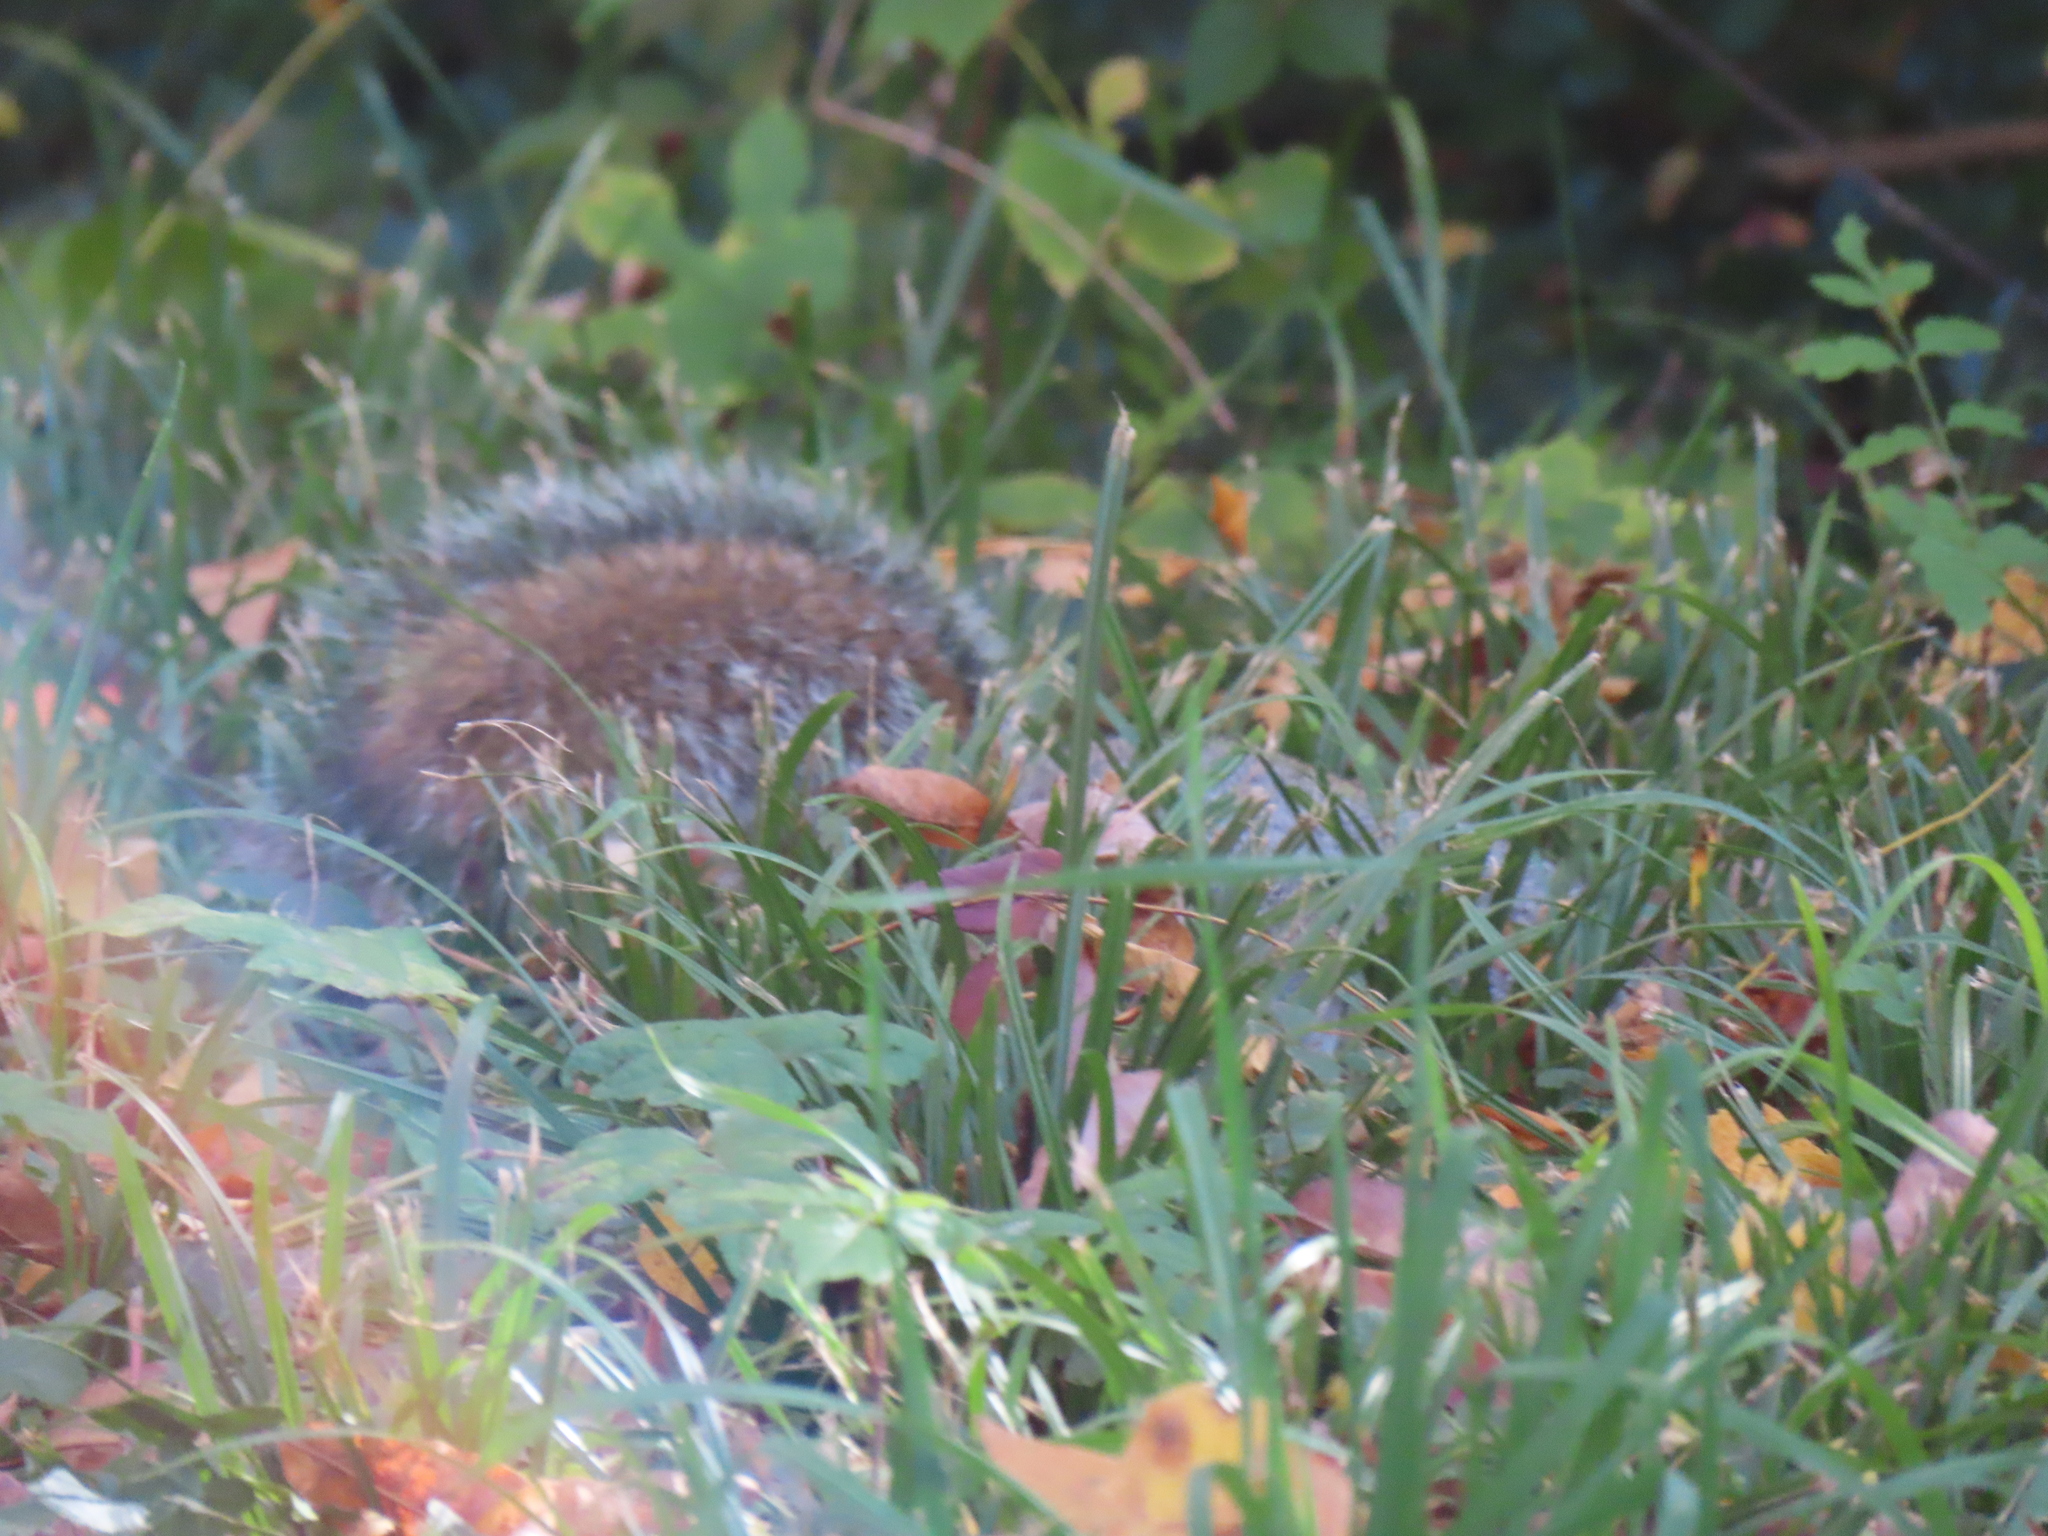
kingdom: Animalia
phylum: Chordata
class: Mammalia
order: Rodentia
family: Sciuridae
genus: Sciurus
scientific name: Sciurus carolinensis
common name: Eastern gray squirrel
